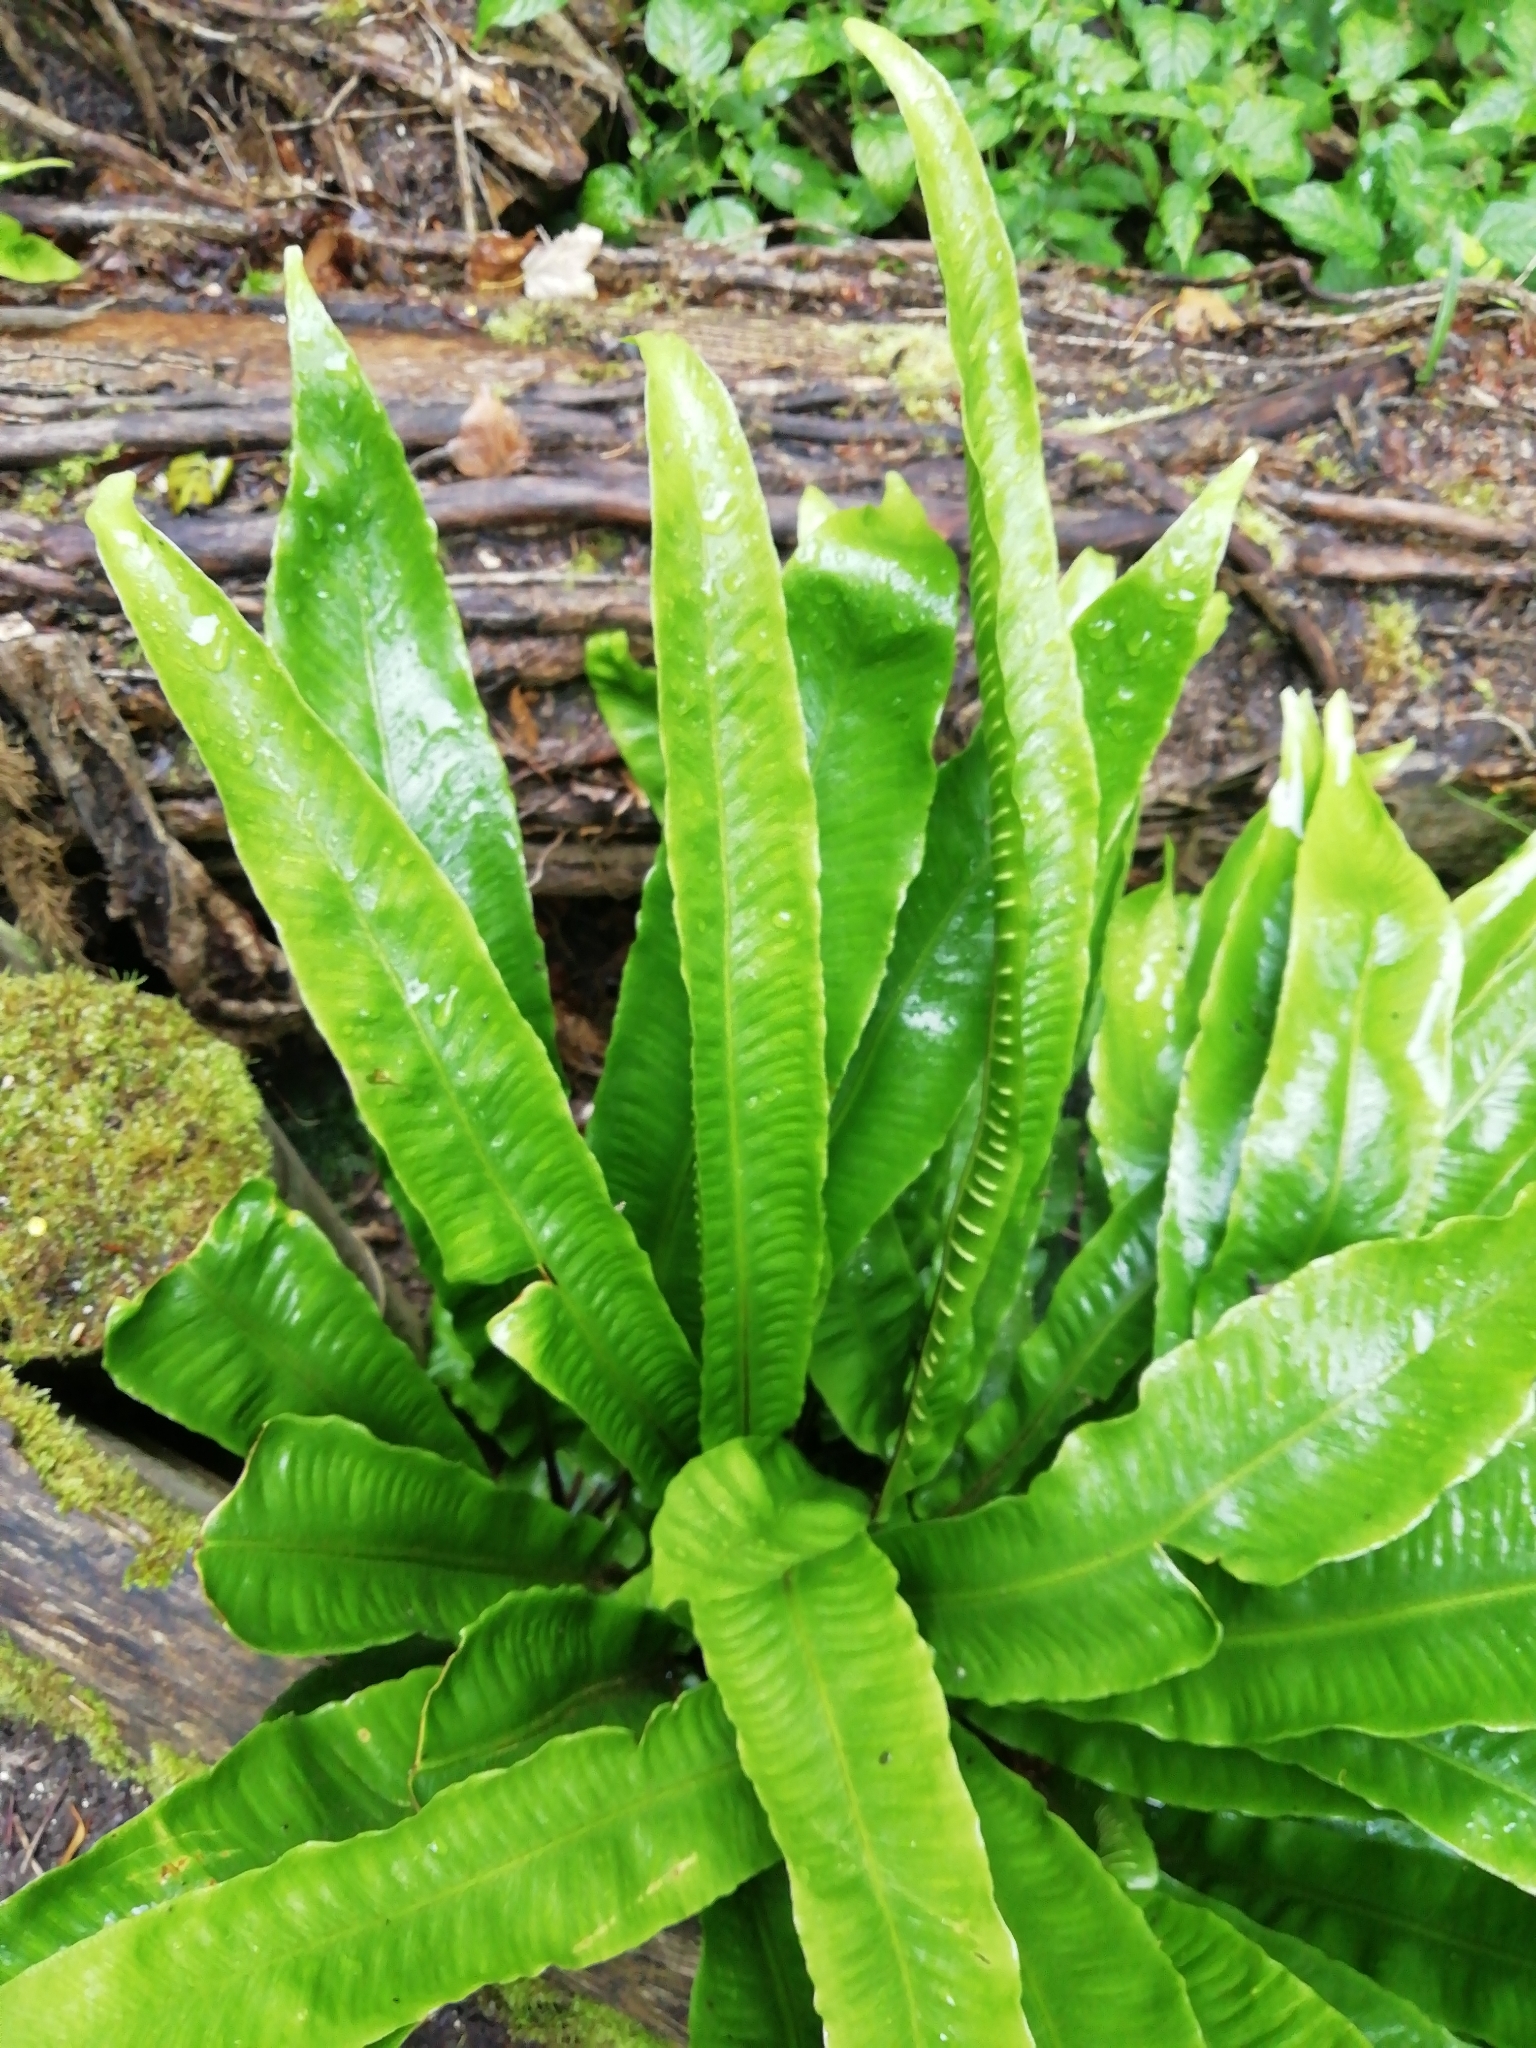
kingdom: Plantae
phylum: Tracheophyta
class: Polypodiopsida
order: Polypodiales
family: Aspleniaceae
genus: Asplenium
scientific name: Asplenium scolopendrium
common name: Hart's-tongue fern
